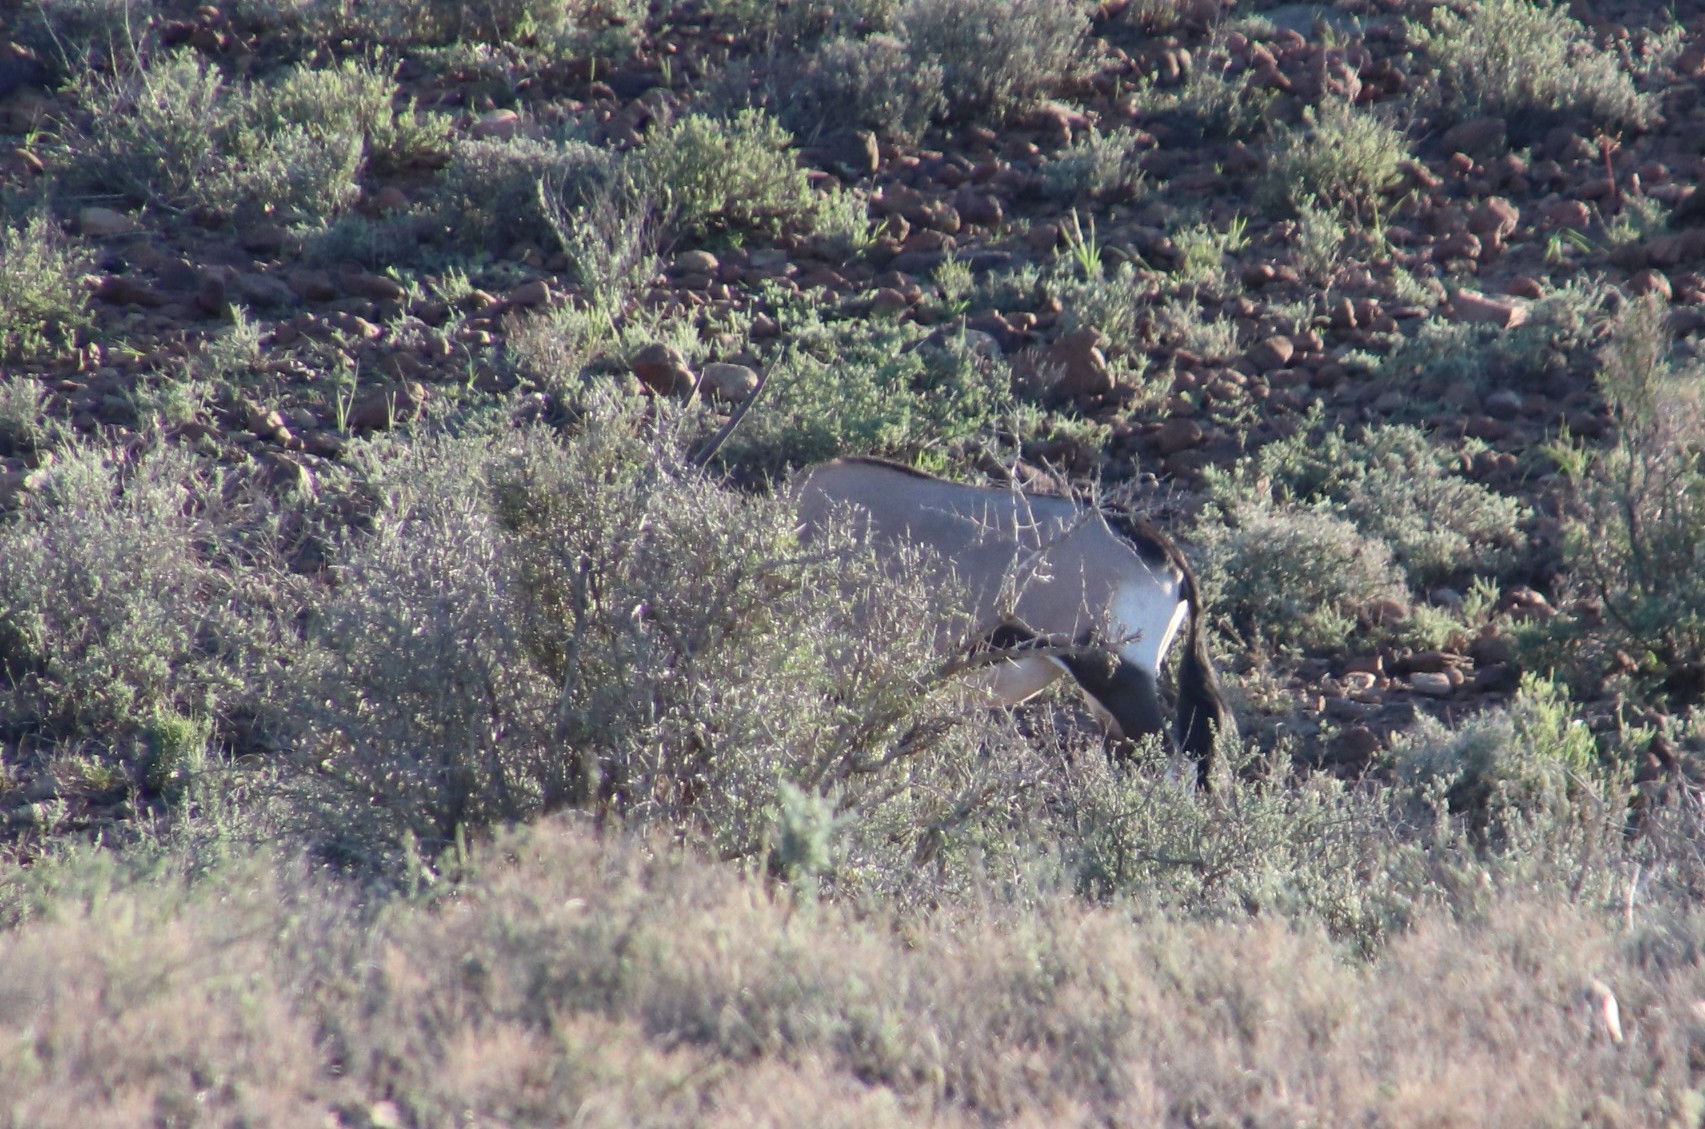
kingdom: Animalia
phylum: Chordata
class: Mammalia
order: Artiodactyla
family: Bovidae
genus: Oryx
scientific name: Oryx gazella
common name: Gemsbok
